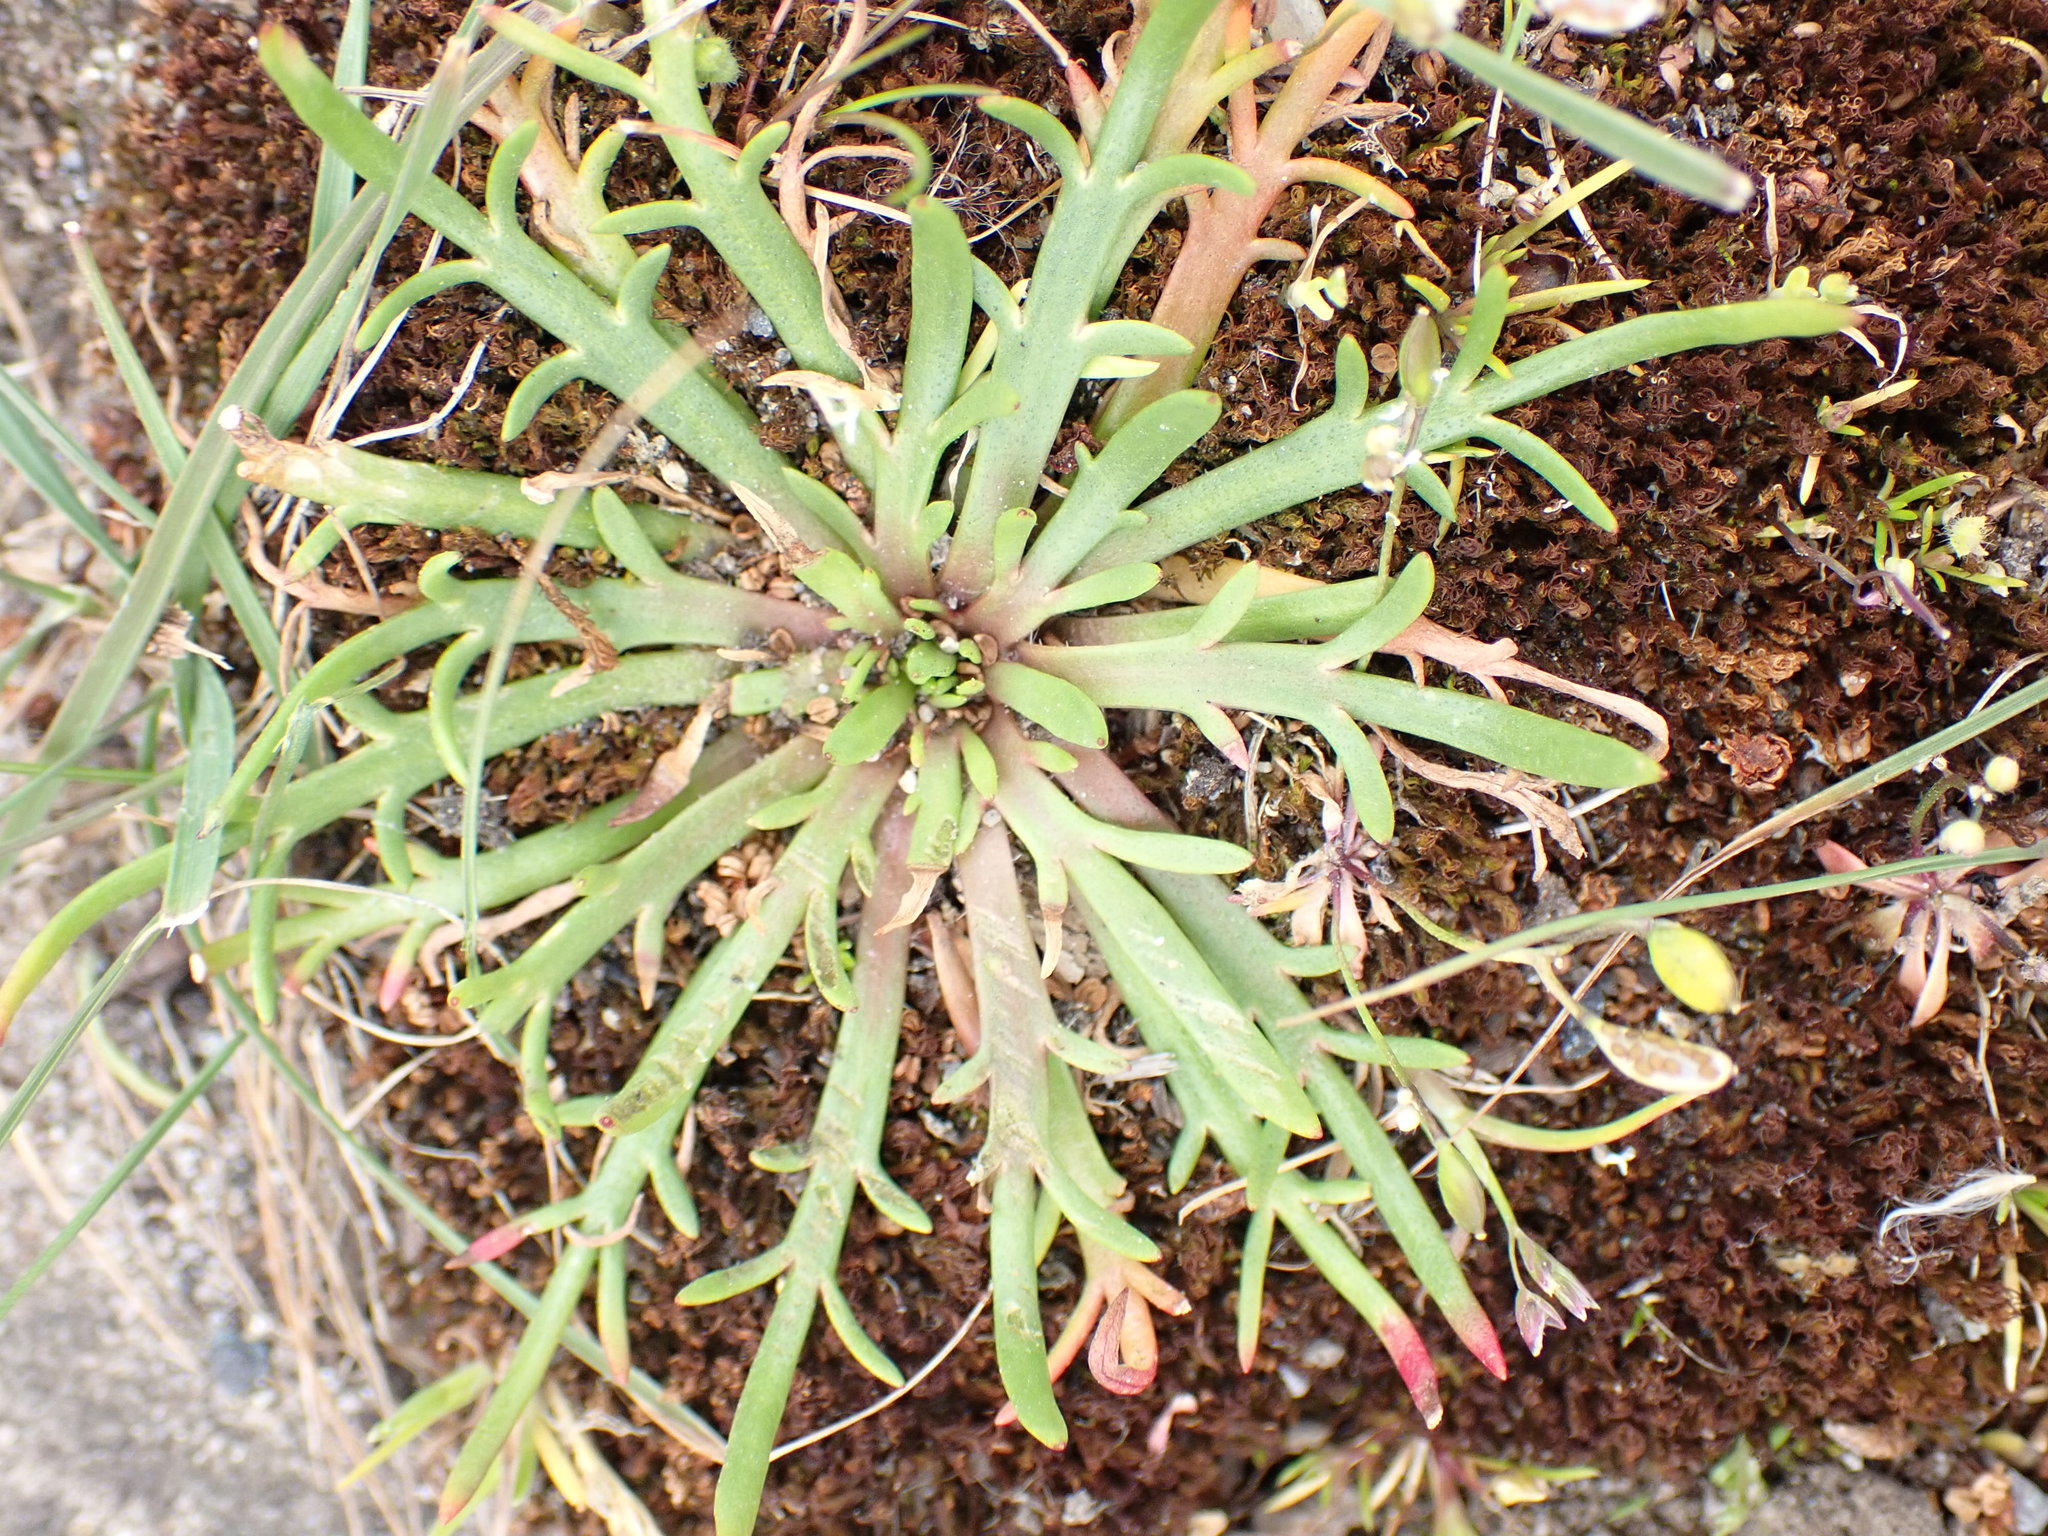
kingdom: Plantae
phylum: Tracheophyta
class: Magnoliopsida
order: Lamiales
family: Plantaginaceae
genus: Plantago
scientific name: Plantago coronopus
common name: Buck's-horn plantain
